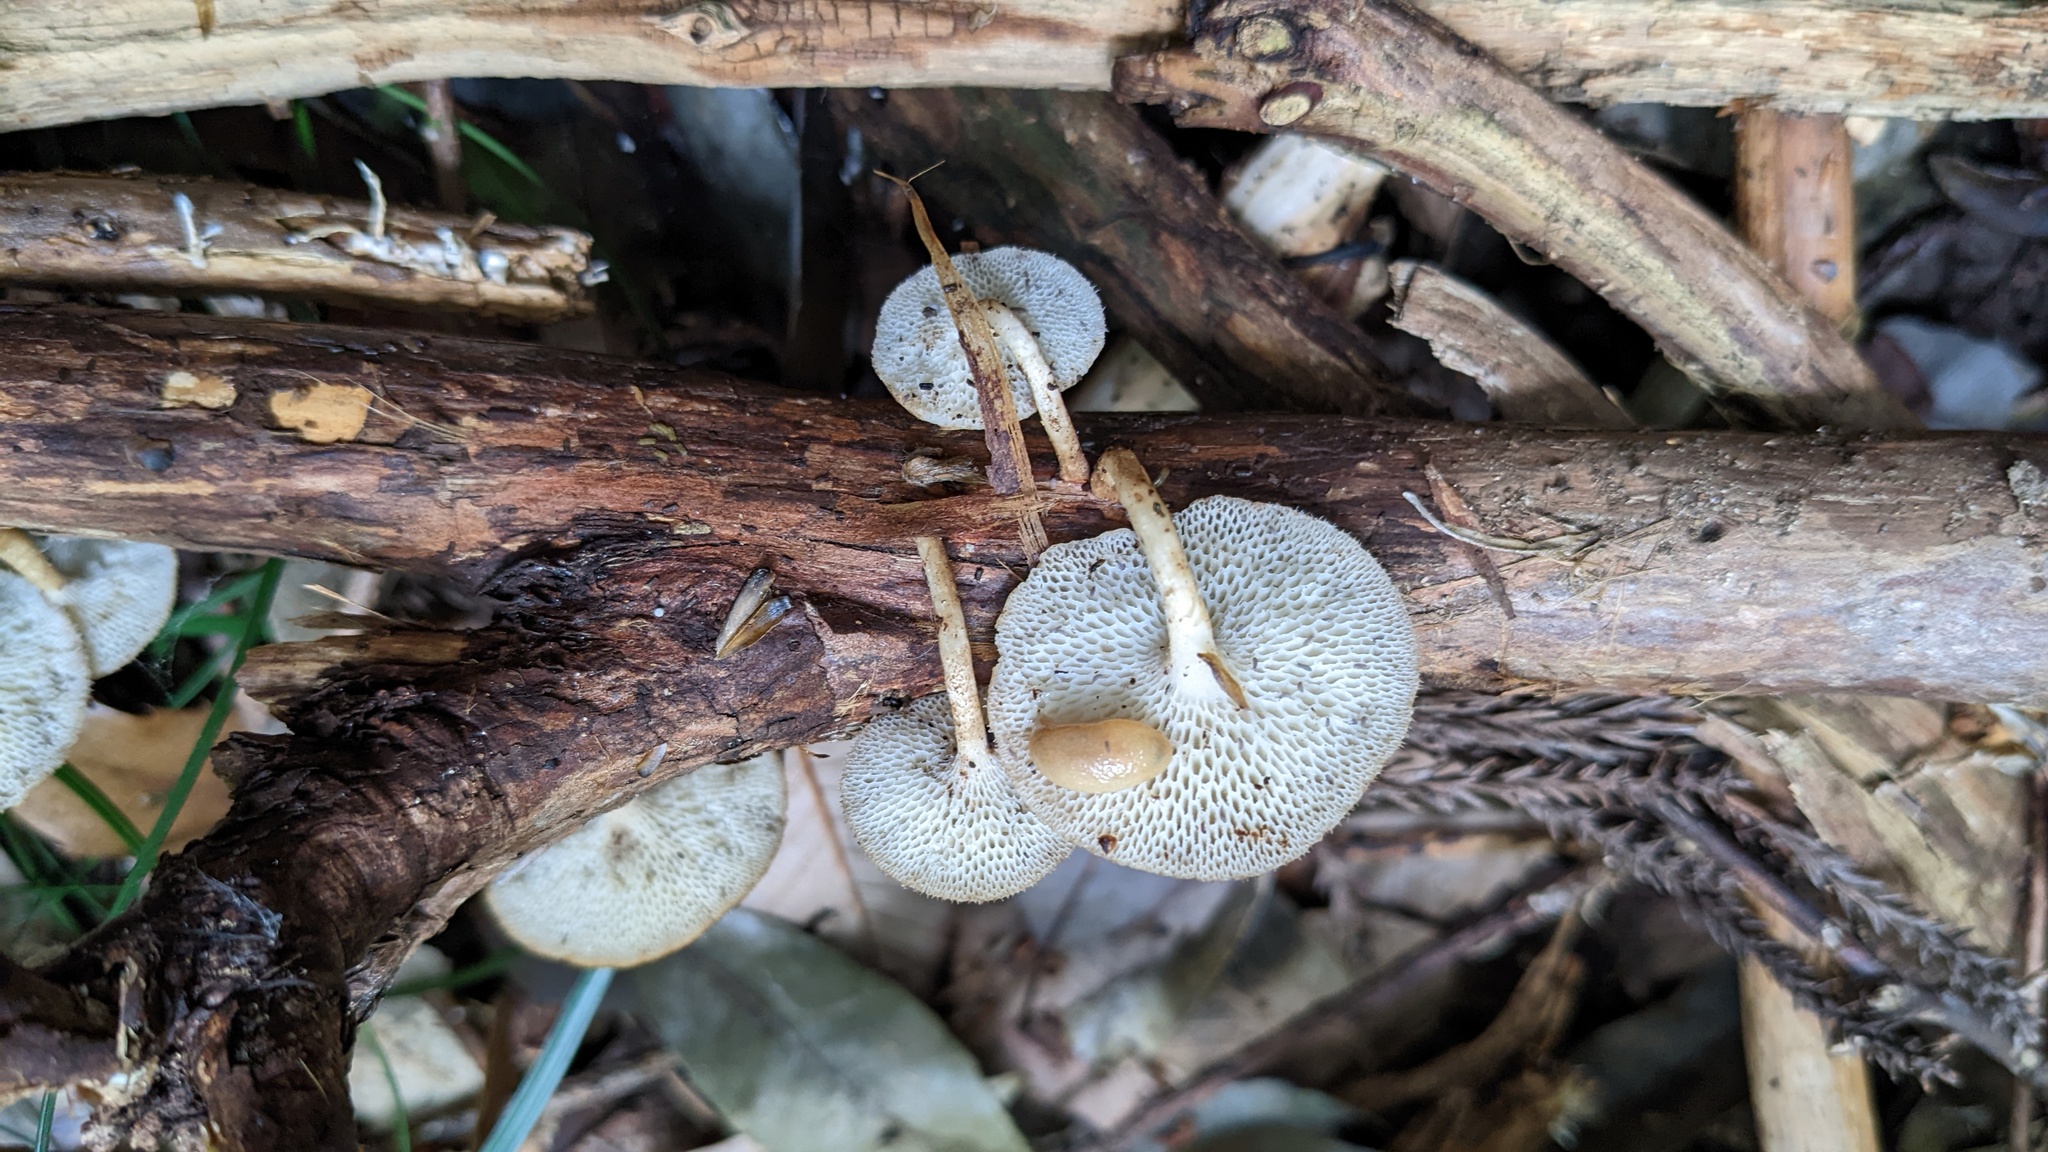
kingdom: Fungi
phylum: Basidiomycota
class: Agaricomycetes
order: Polyporales
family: Polyporaceae
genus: Lentinus
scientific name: Lentinus arcularius
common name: Spring polypore
